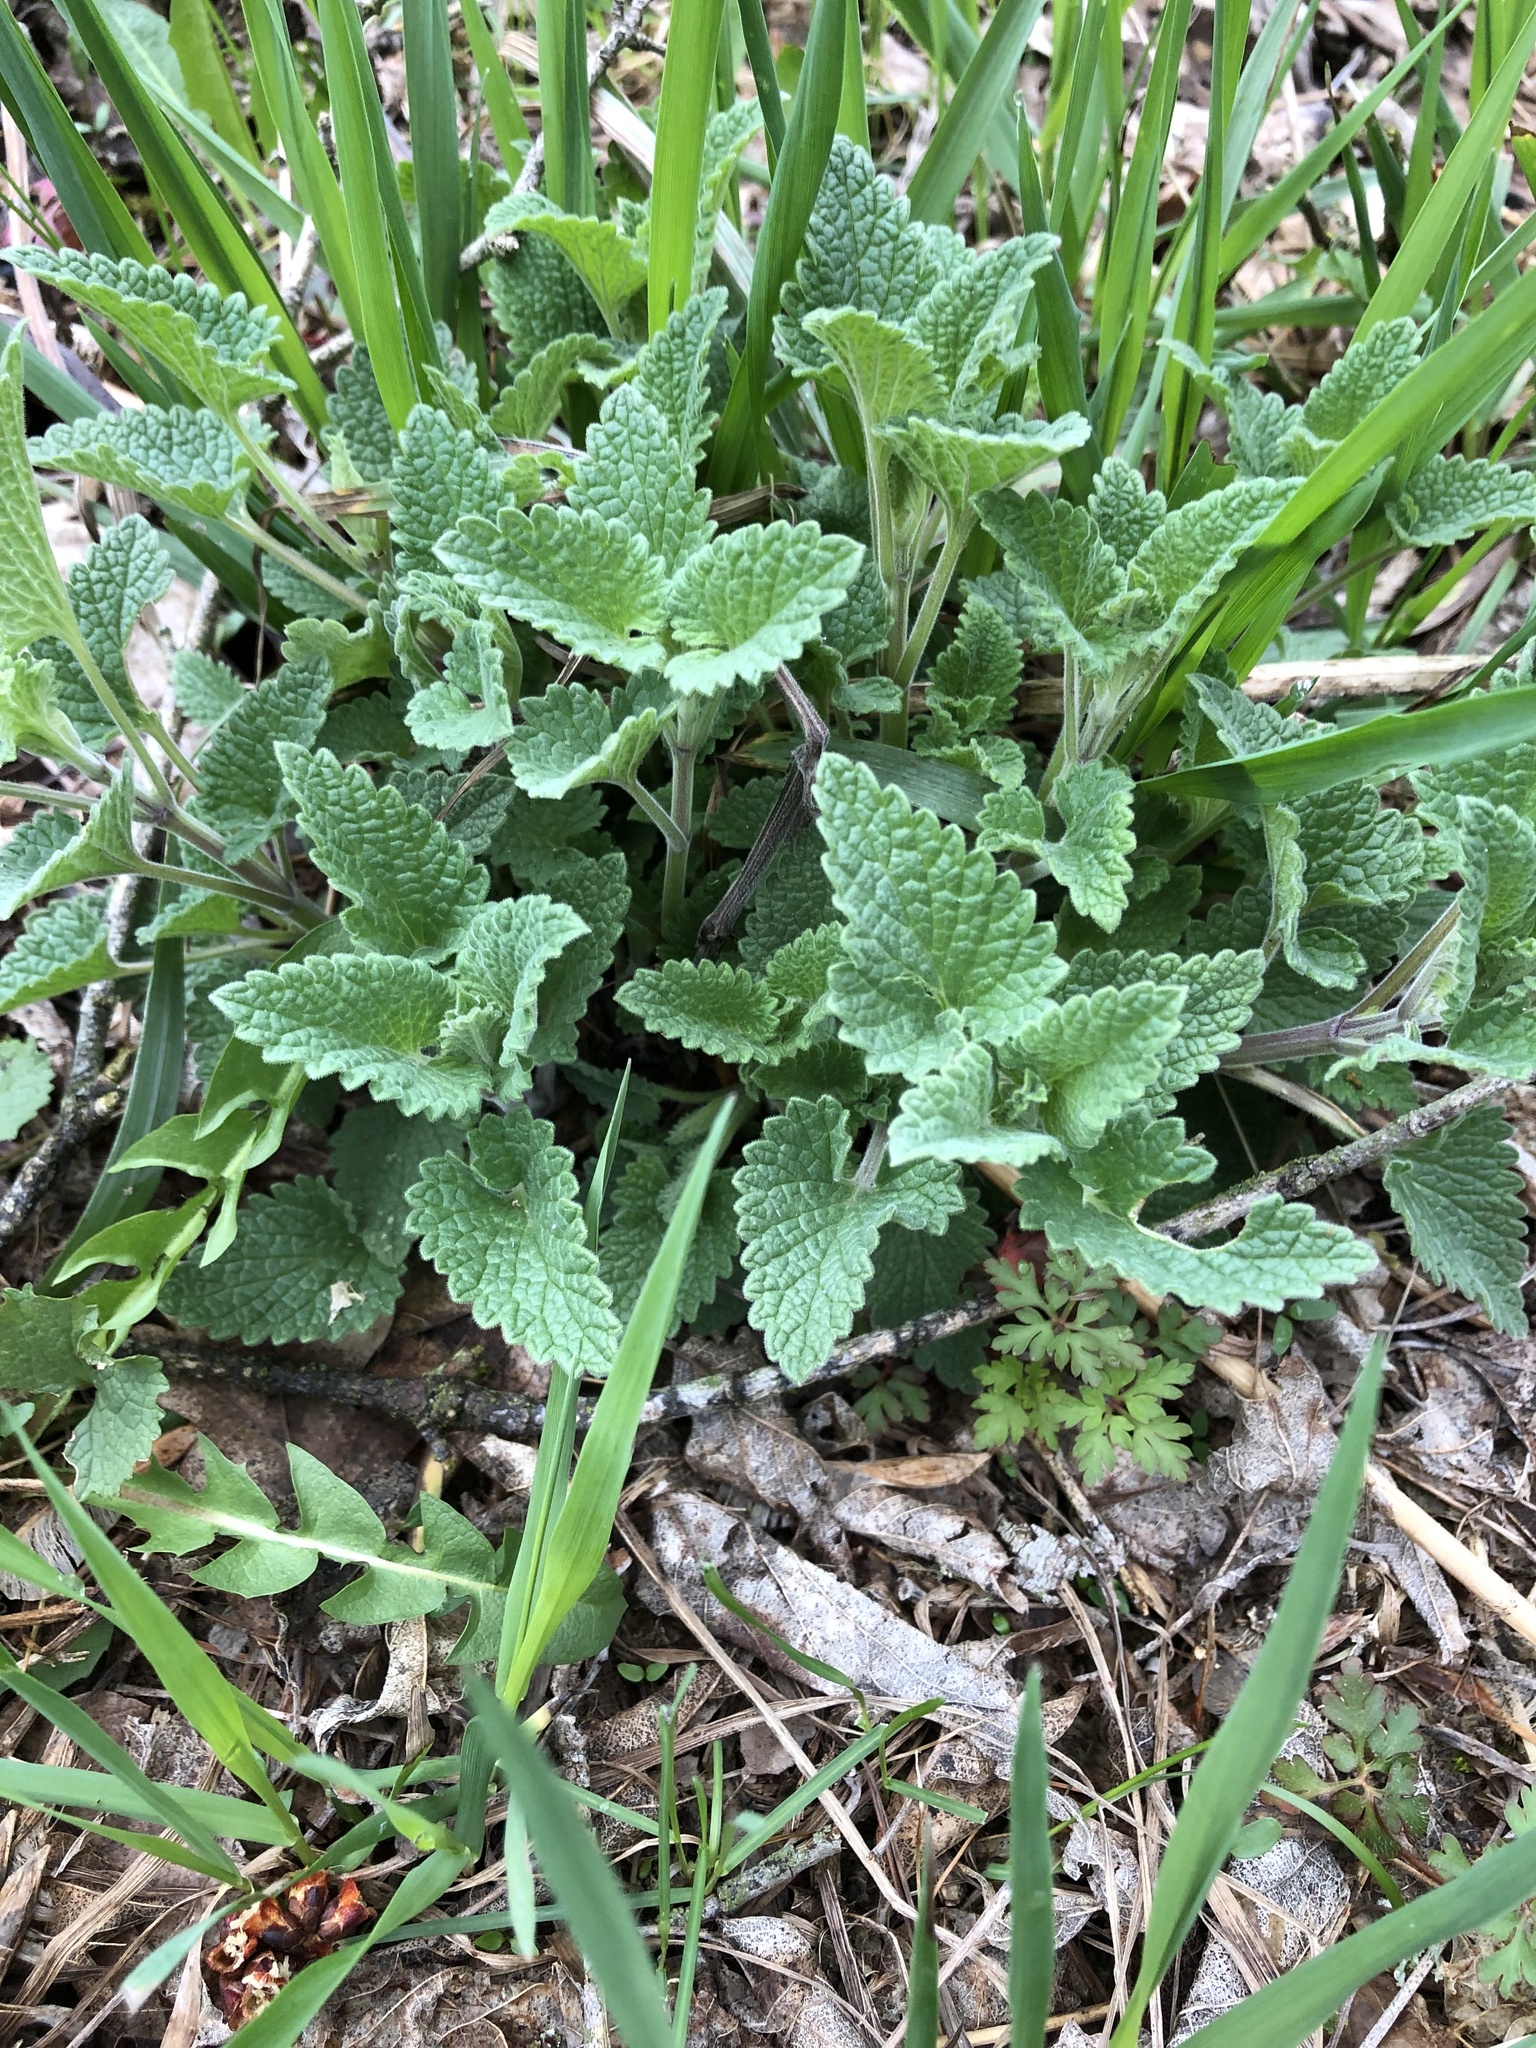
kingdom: Plantae
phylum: Tracheophyta
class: Magnoliopsida
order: Lamiales
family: Lamiaceae
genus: Nepeta
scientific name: Nepeta cataria
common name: Catnip
